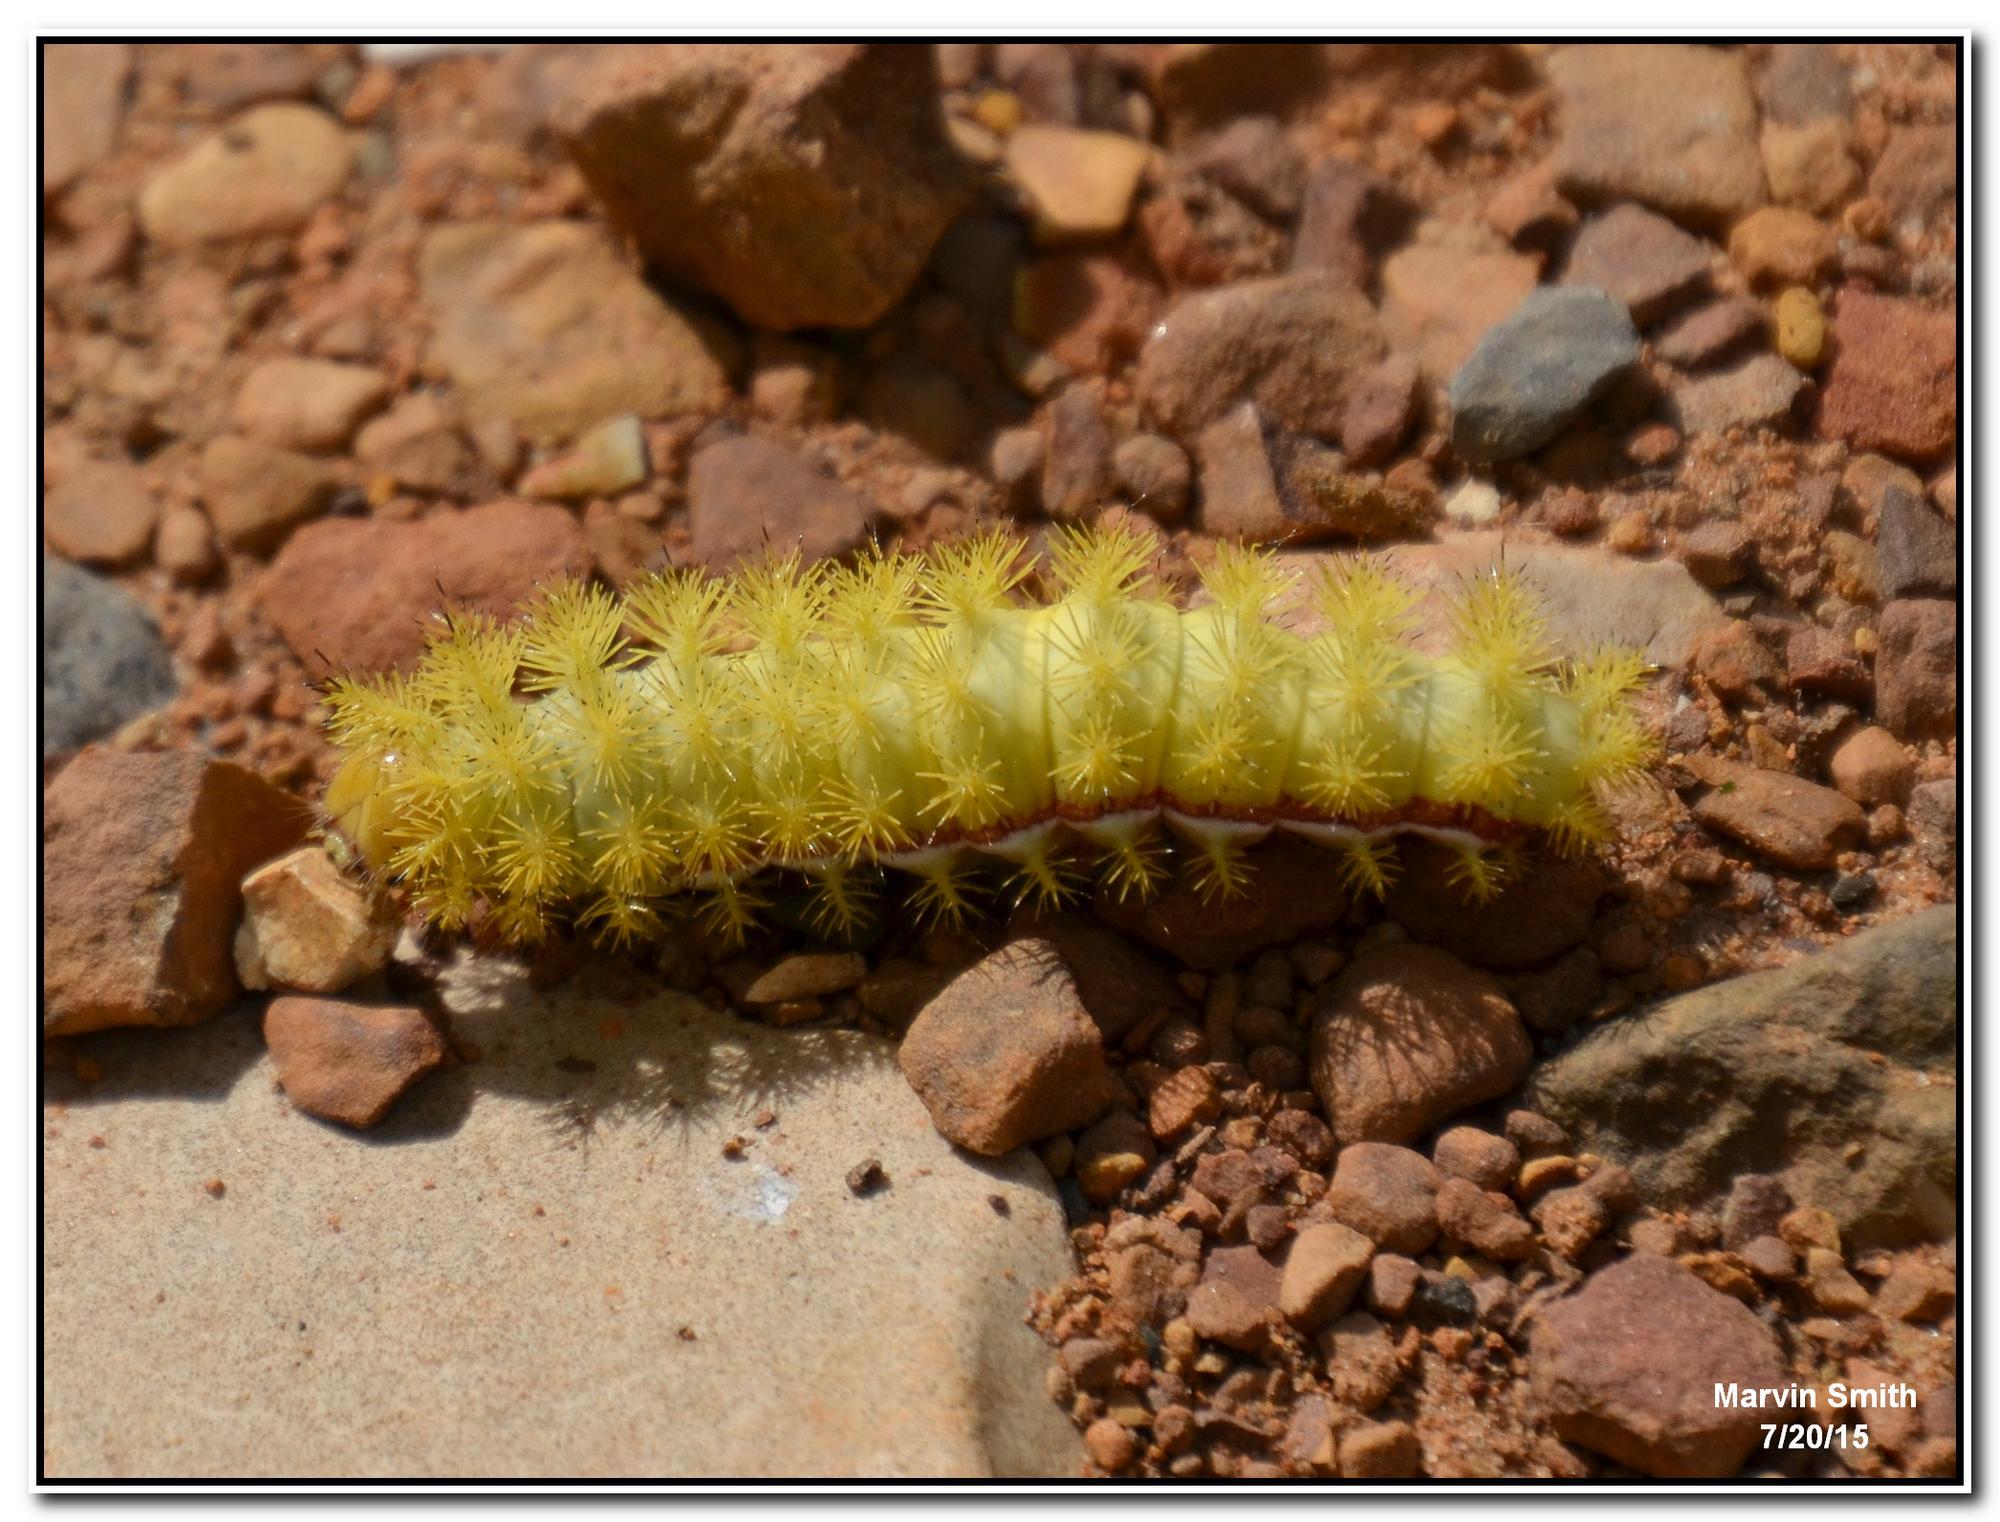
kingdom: Animalia
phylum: Arthropoda
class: Insecta
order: Lepidoptera
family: Saturniidae
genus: Automeris
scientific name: Automeris io
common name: Io moth
